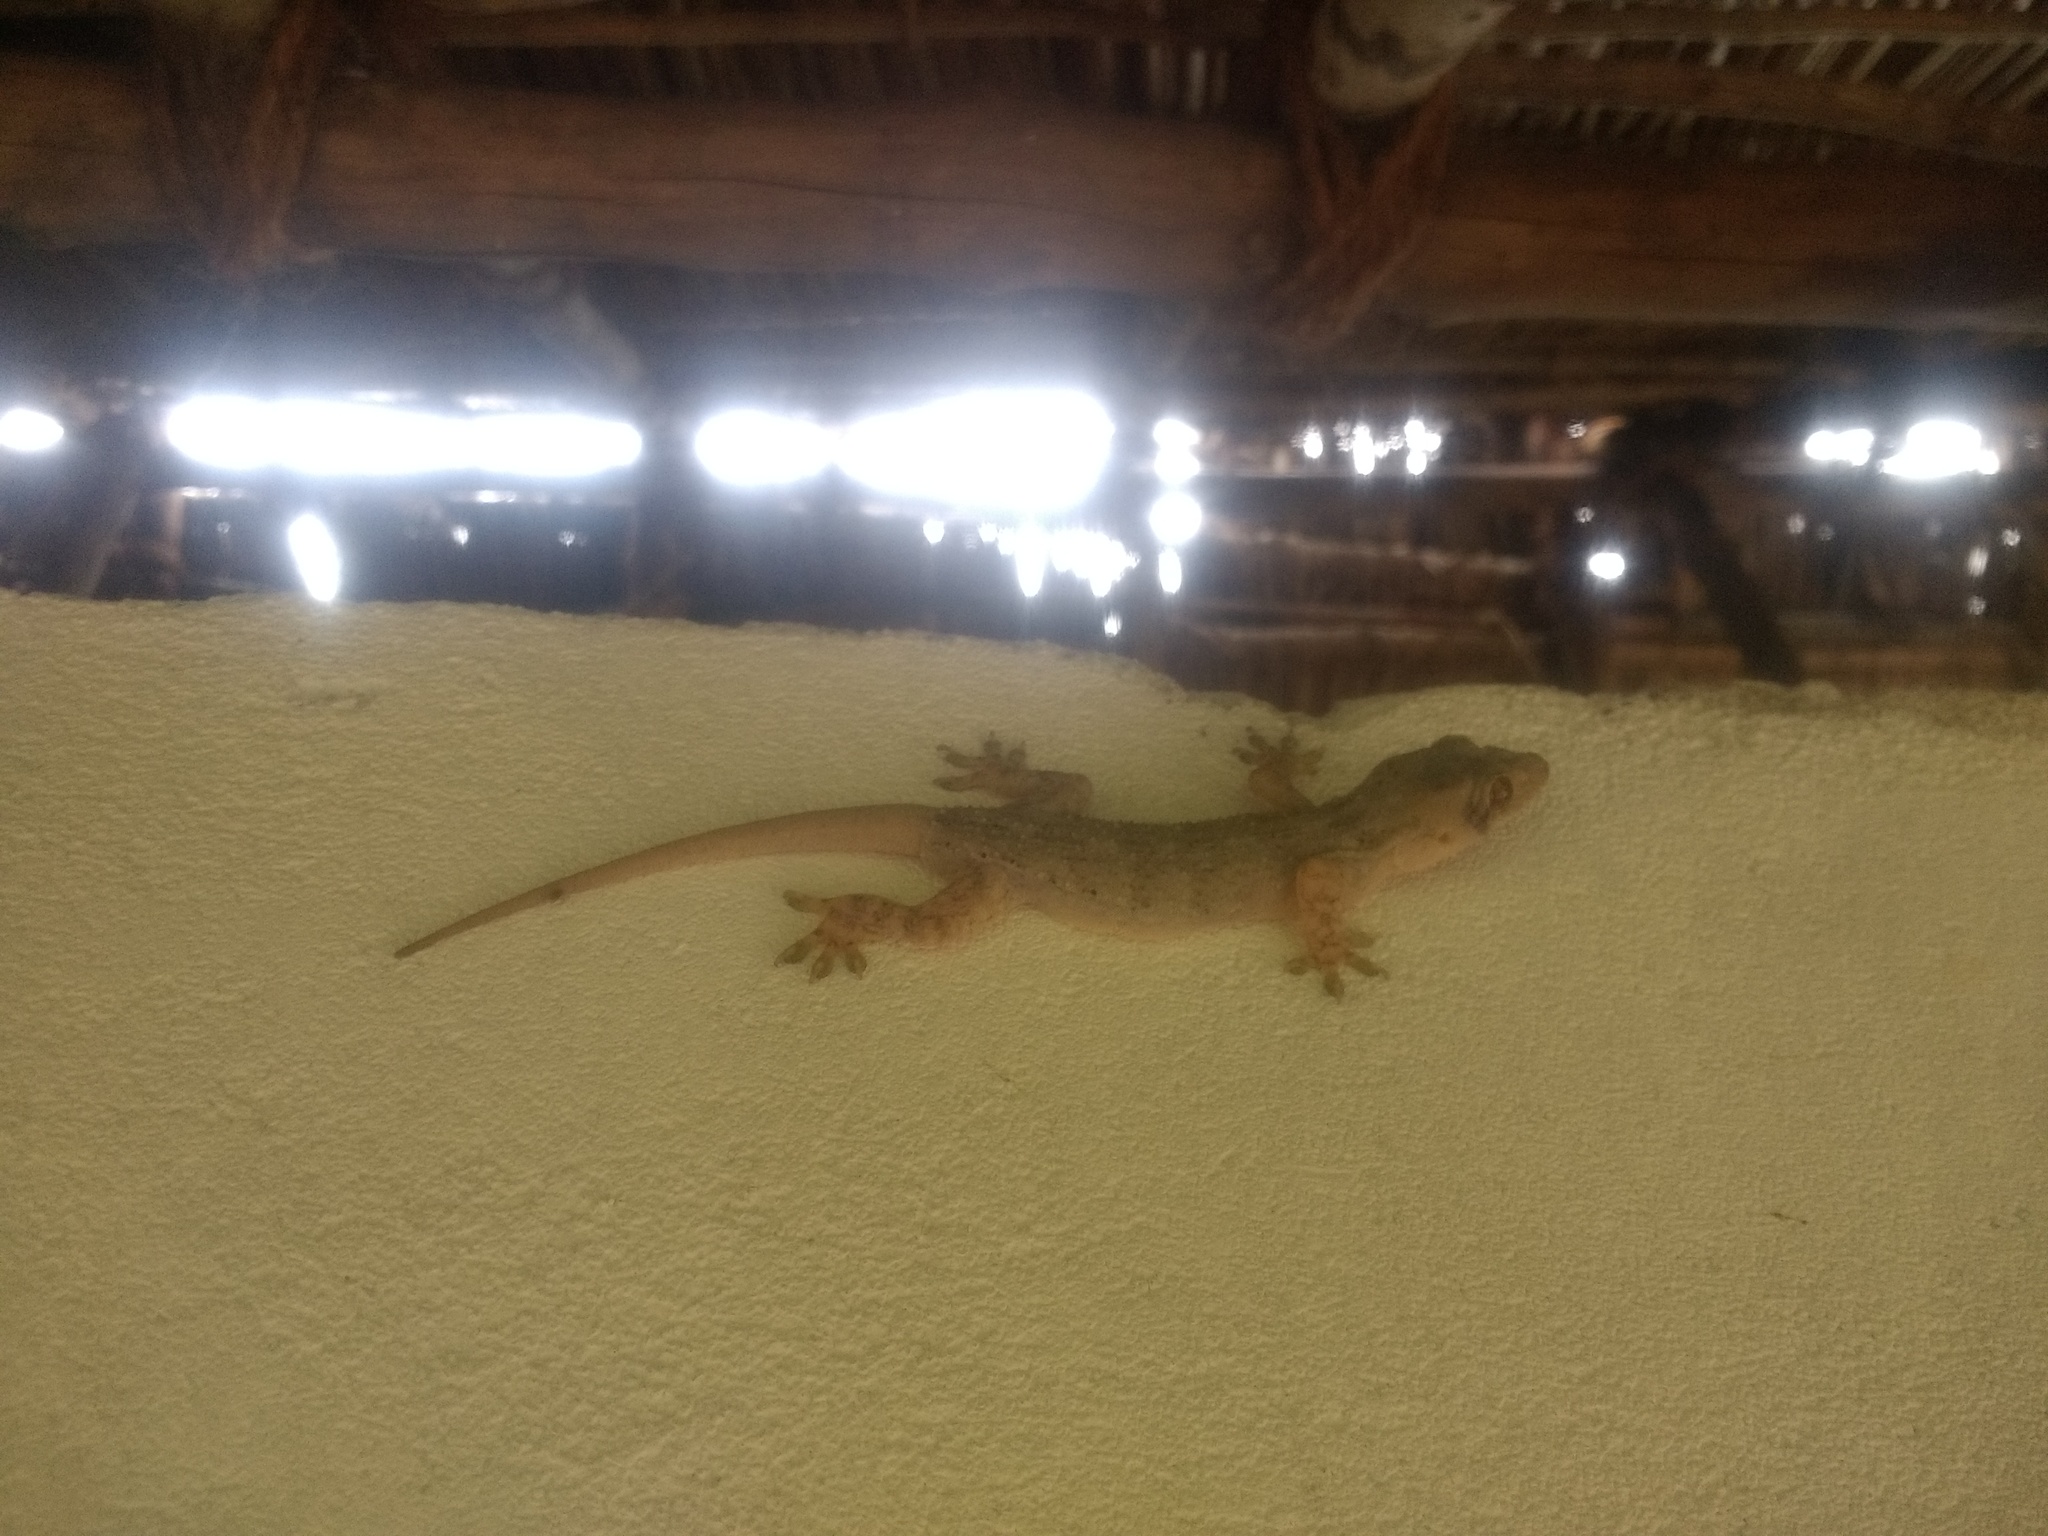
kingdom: Animalia
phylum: Chordata
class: Squamata
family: Gekkonidae
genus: Hemidactylus
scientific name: Hemidactylus platycephalus
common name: Baobab gecko
